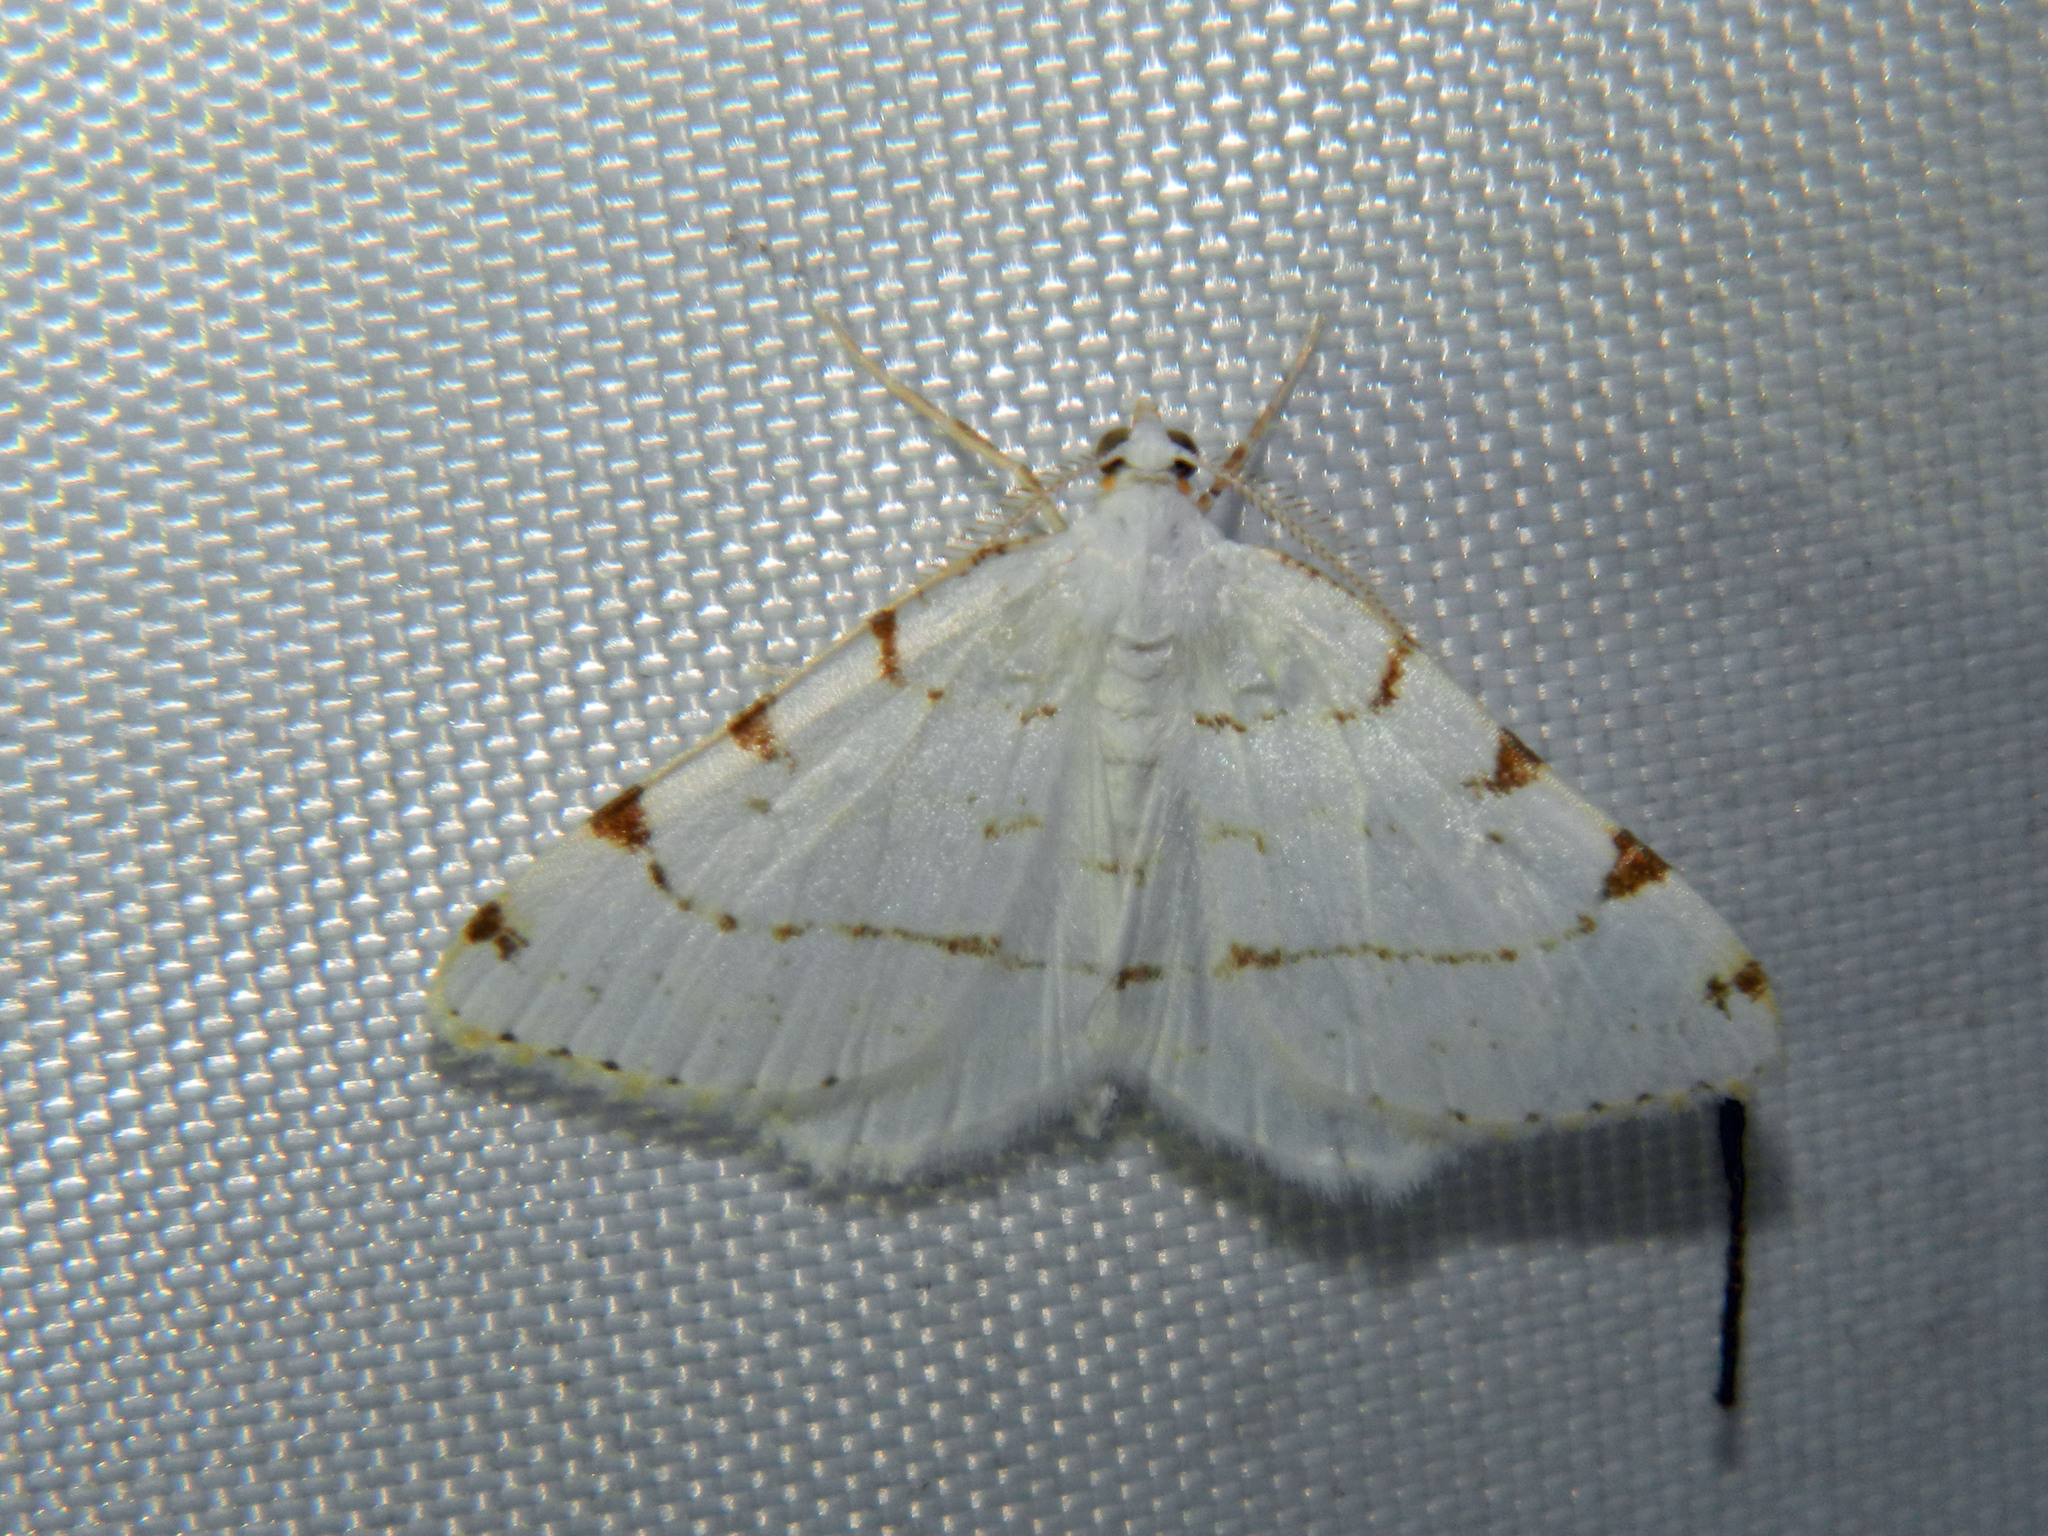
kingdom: Animalia
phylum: Arthropoda
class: Insecta
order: Lepidoptera
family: Geometridae
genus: Macaria
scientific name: Macaria pustularia
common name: Lesser maple spanworm moth
